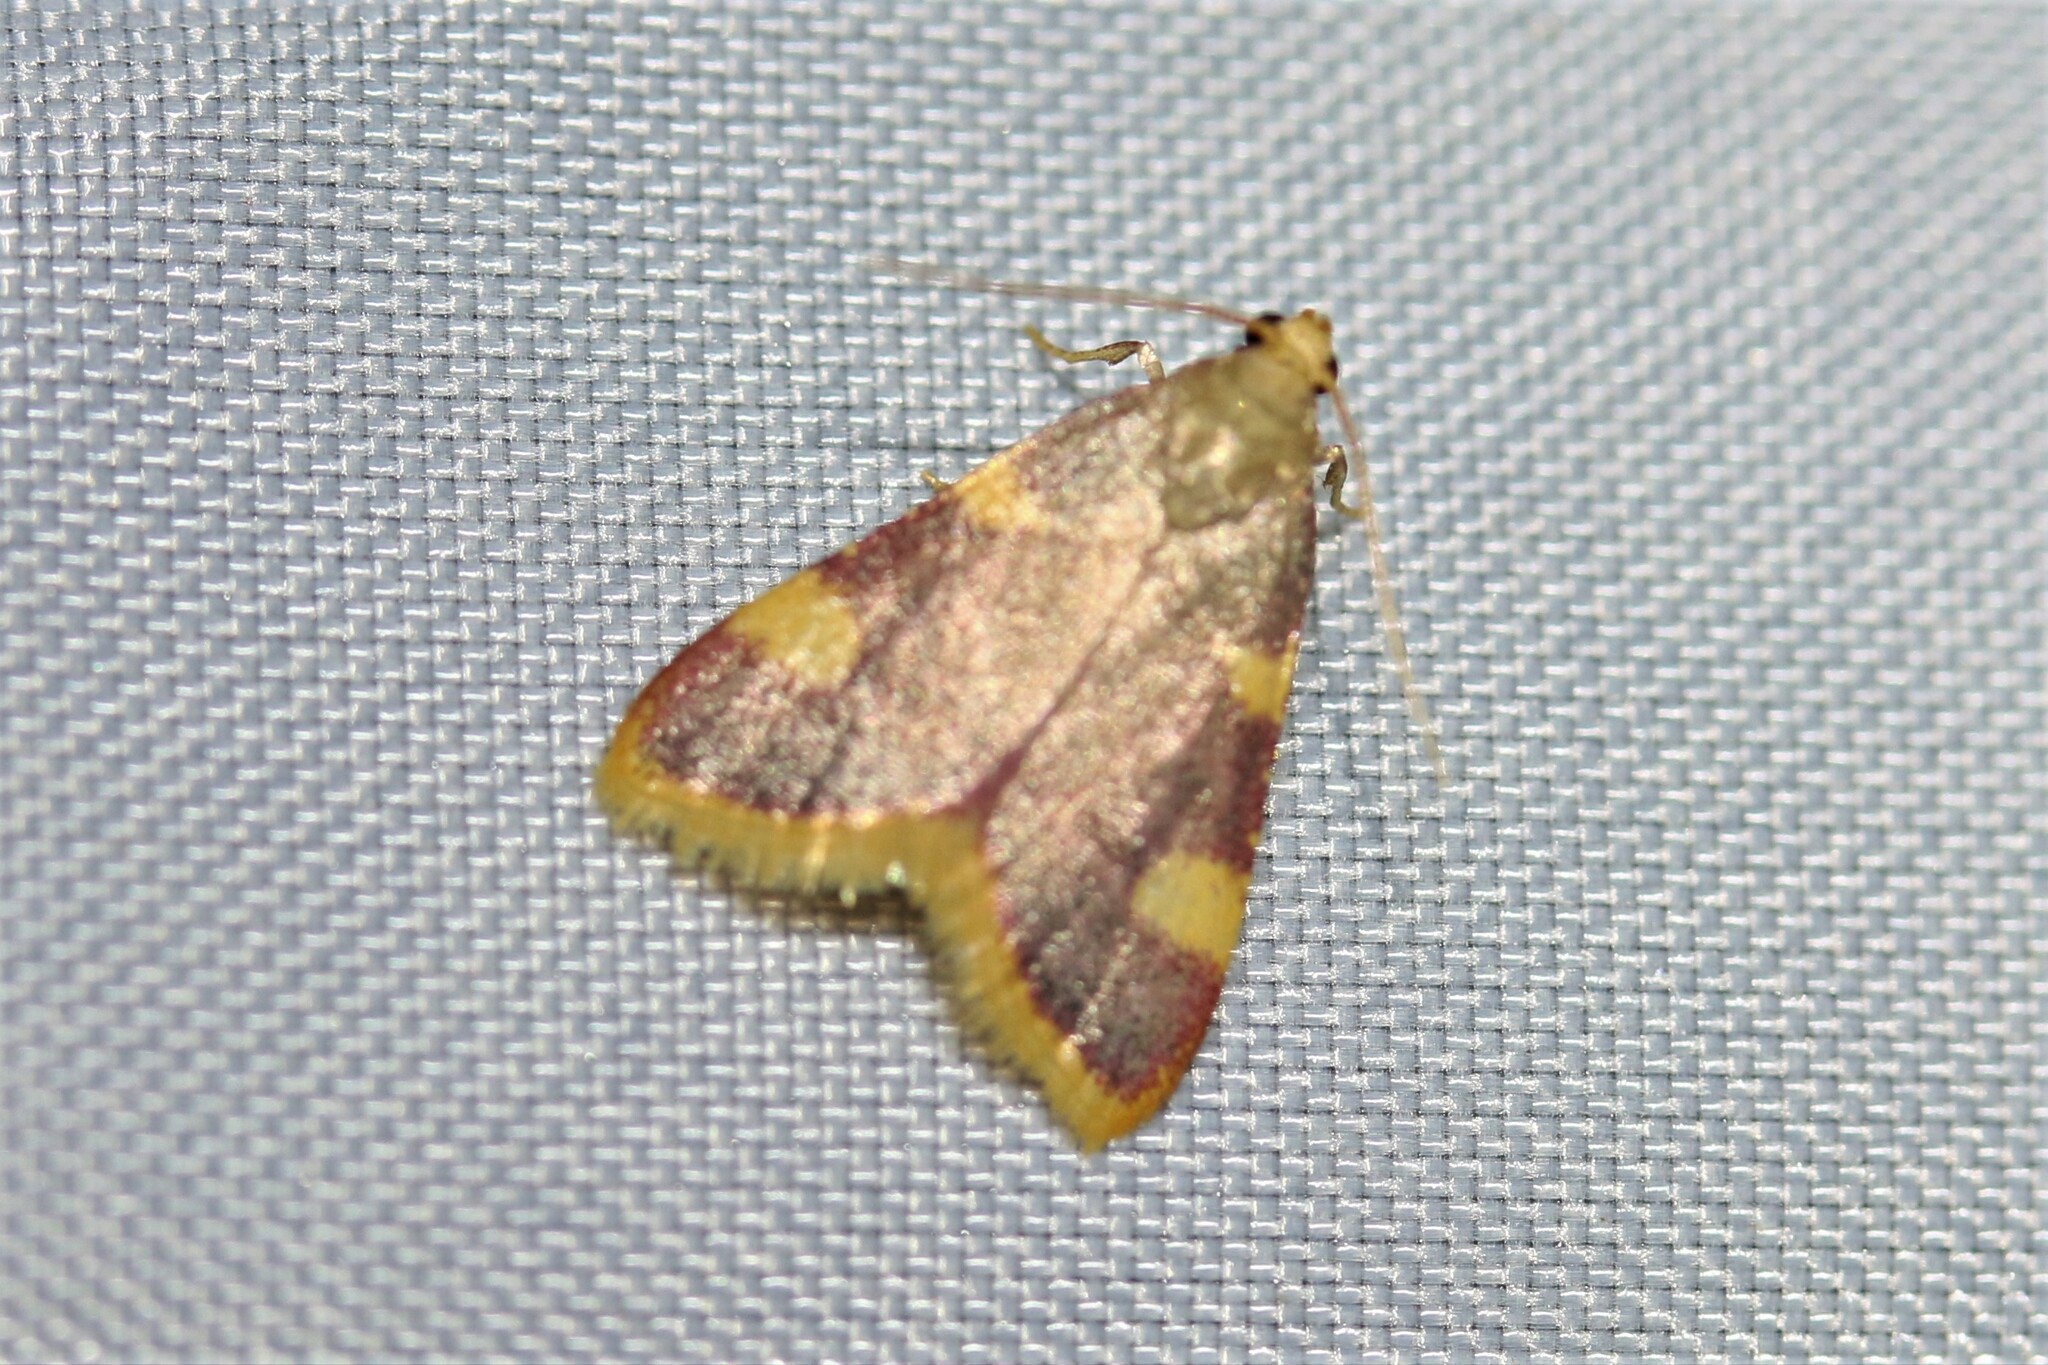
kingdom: Animalia
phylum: Arthropoda
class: Insecta
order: Lepidoptera
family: Pyralidae
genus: Hypsopygia
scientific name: Hypsopygia costalis
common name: Gold triangle
